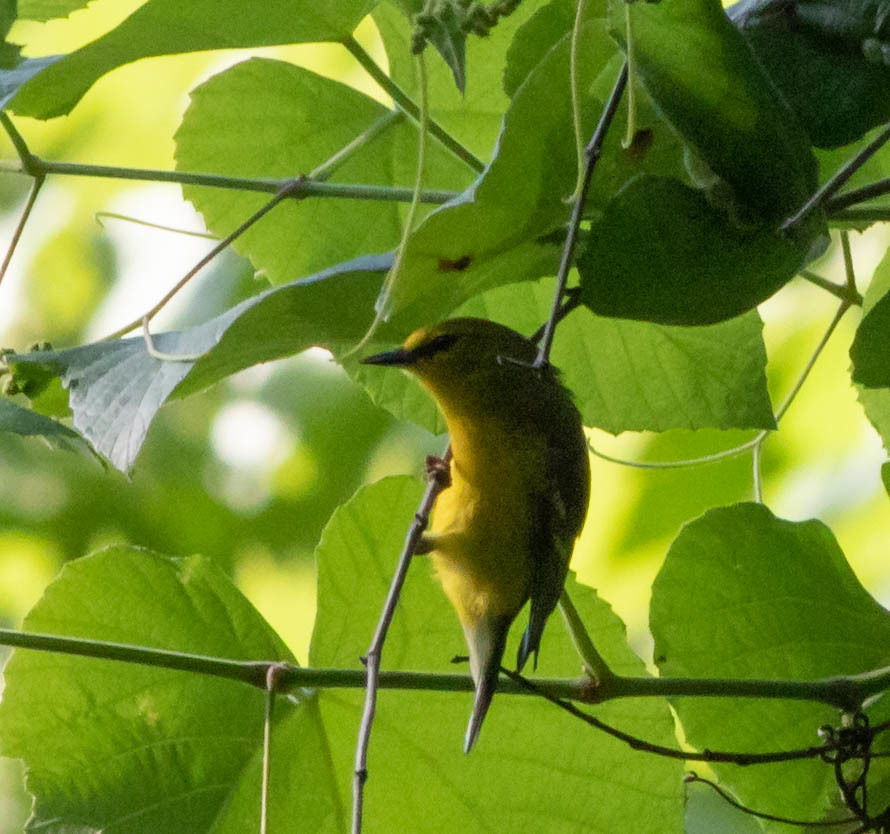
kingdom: Animalia
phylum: Chordata
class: Aves
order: Passeriformes
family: Parulidae
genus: Vermivora
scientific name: Vermivora cyanoptera
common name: Blue-winged warbler
